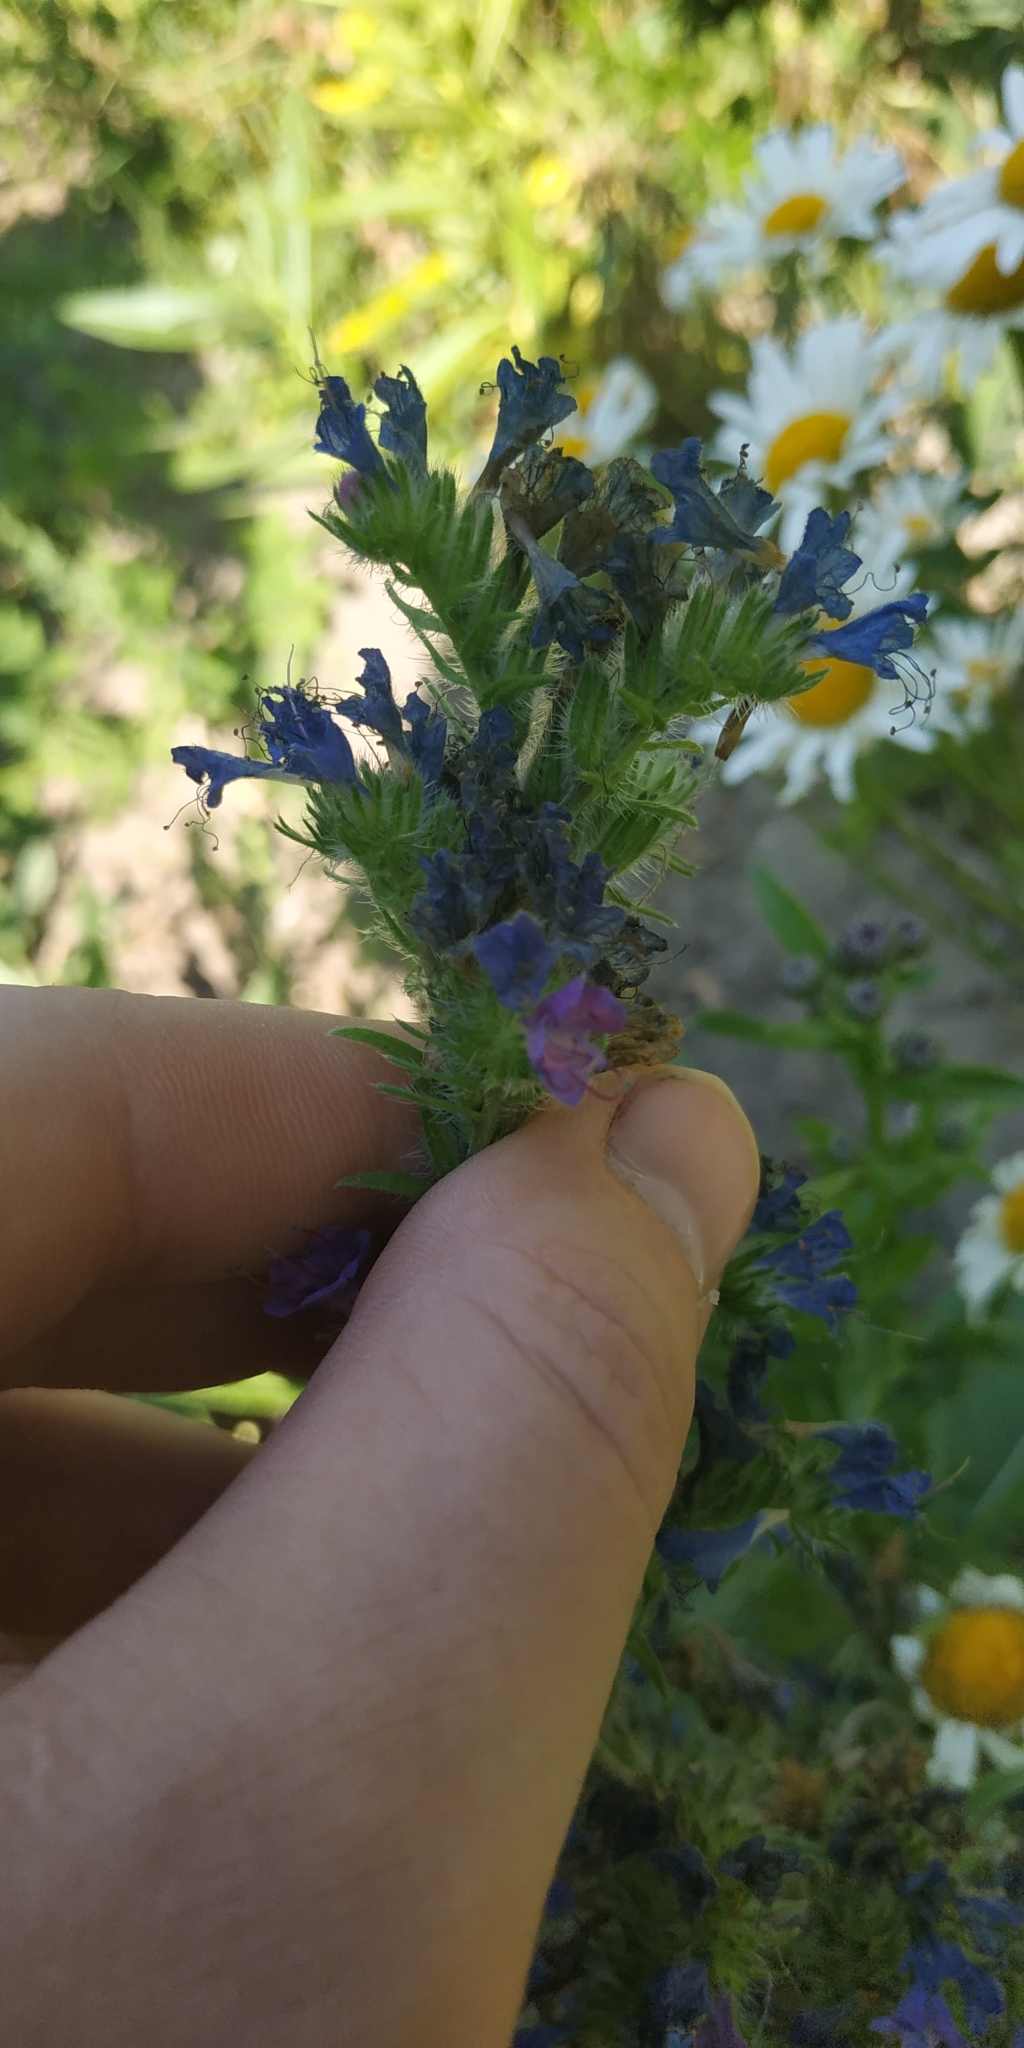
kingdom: Plantae
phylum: Tracheophyta
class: Magnoliopsida
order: Boraginales
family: Boraginaceae
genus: Echium
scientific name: Echium vulgare
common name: Common viper's bugloss
